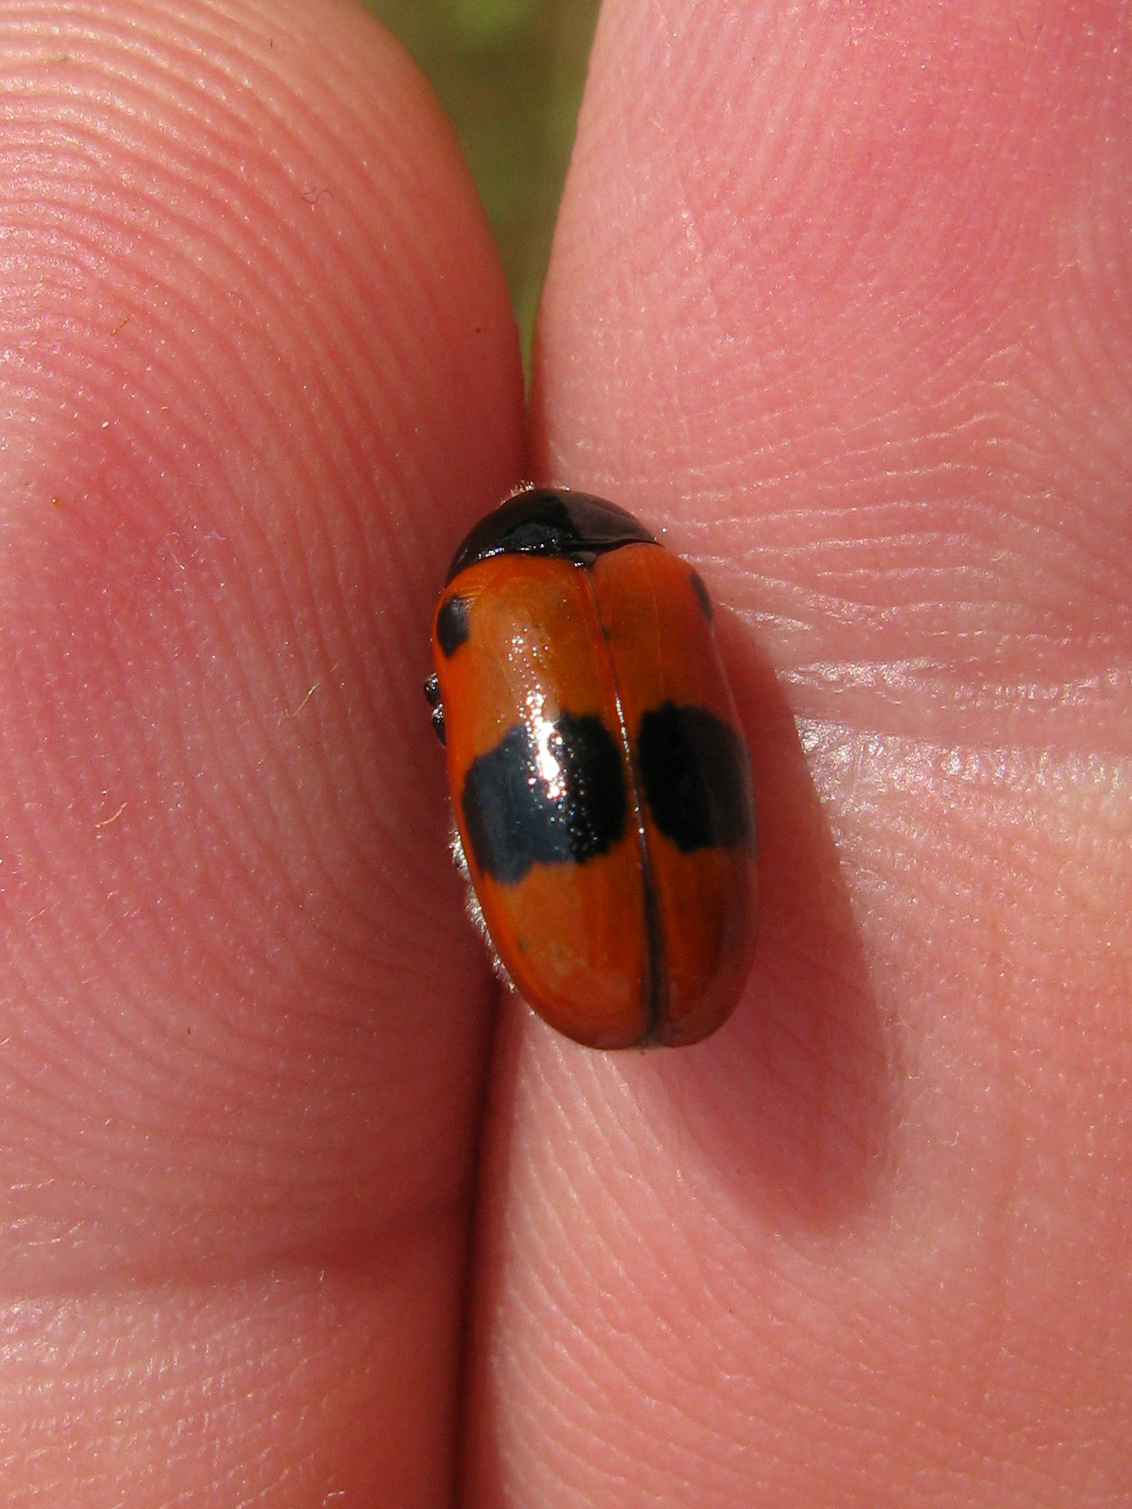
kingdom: Animalia
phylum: Arthropoda
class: Insecta
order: Coleoptera
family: Chrysomelidae
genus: Clytra
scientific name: Clytra laeviuscula
